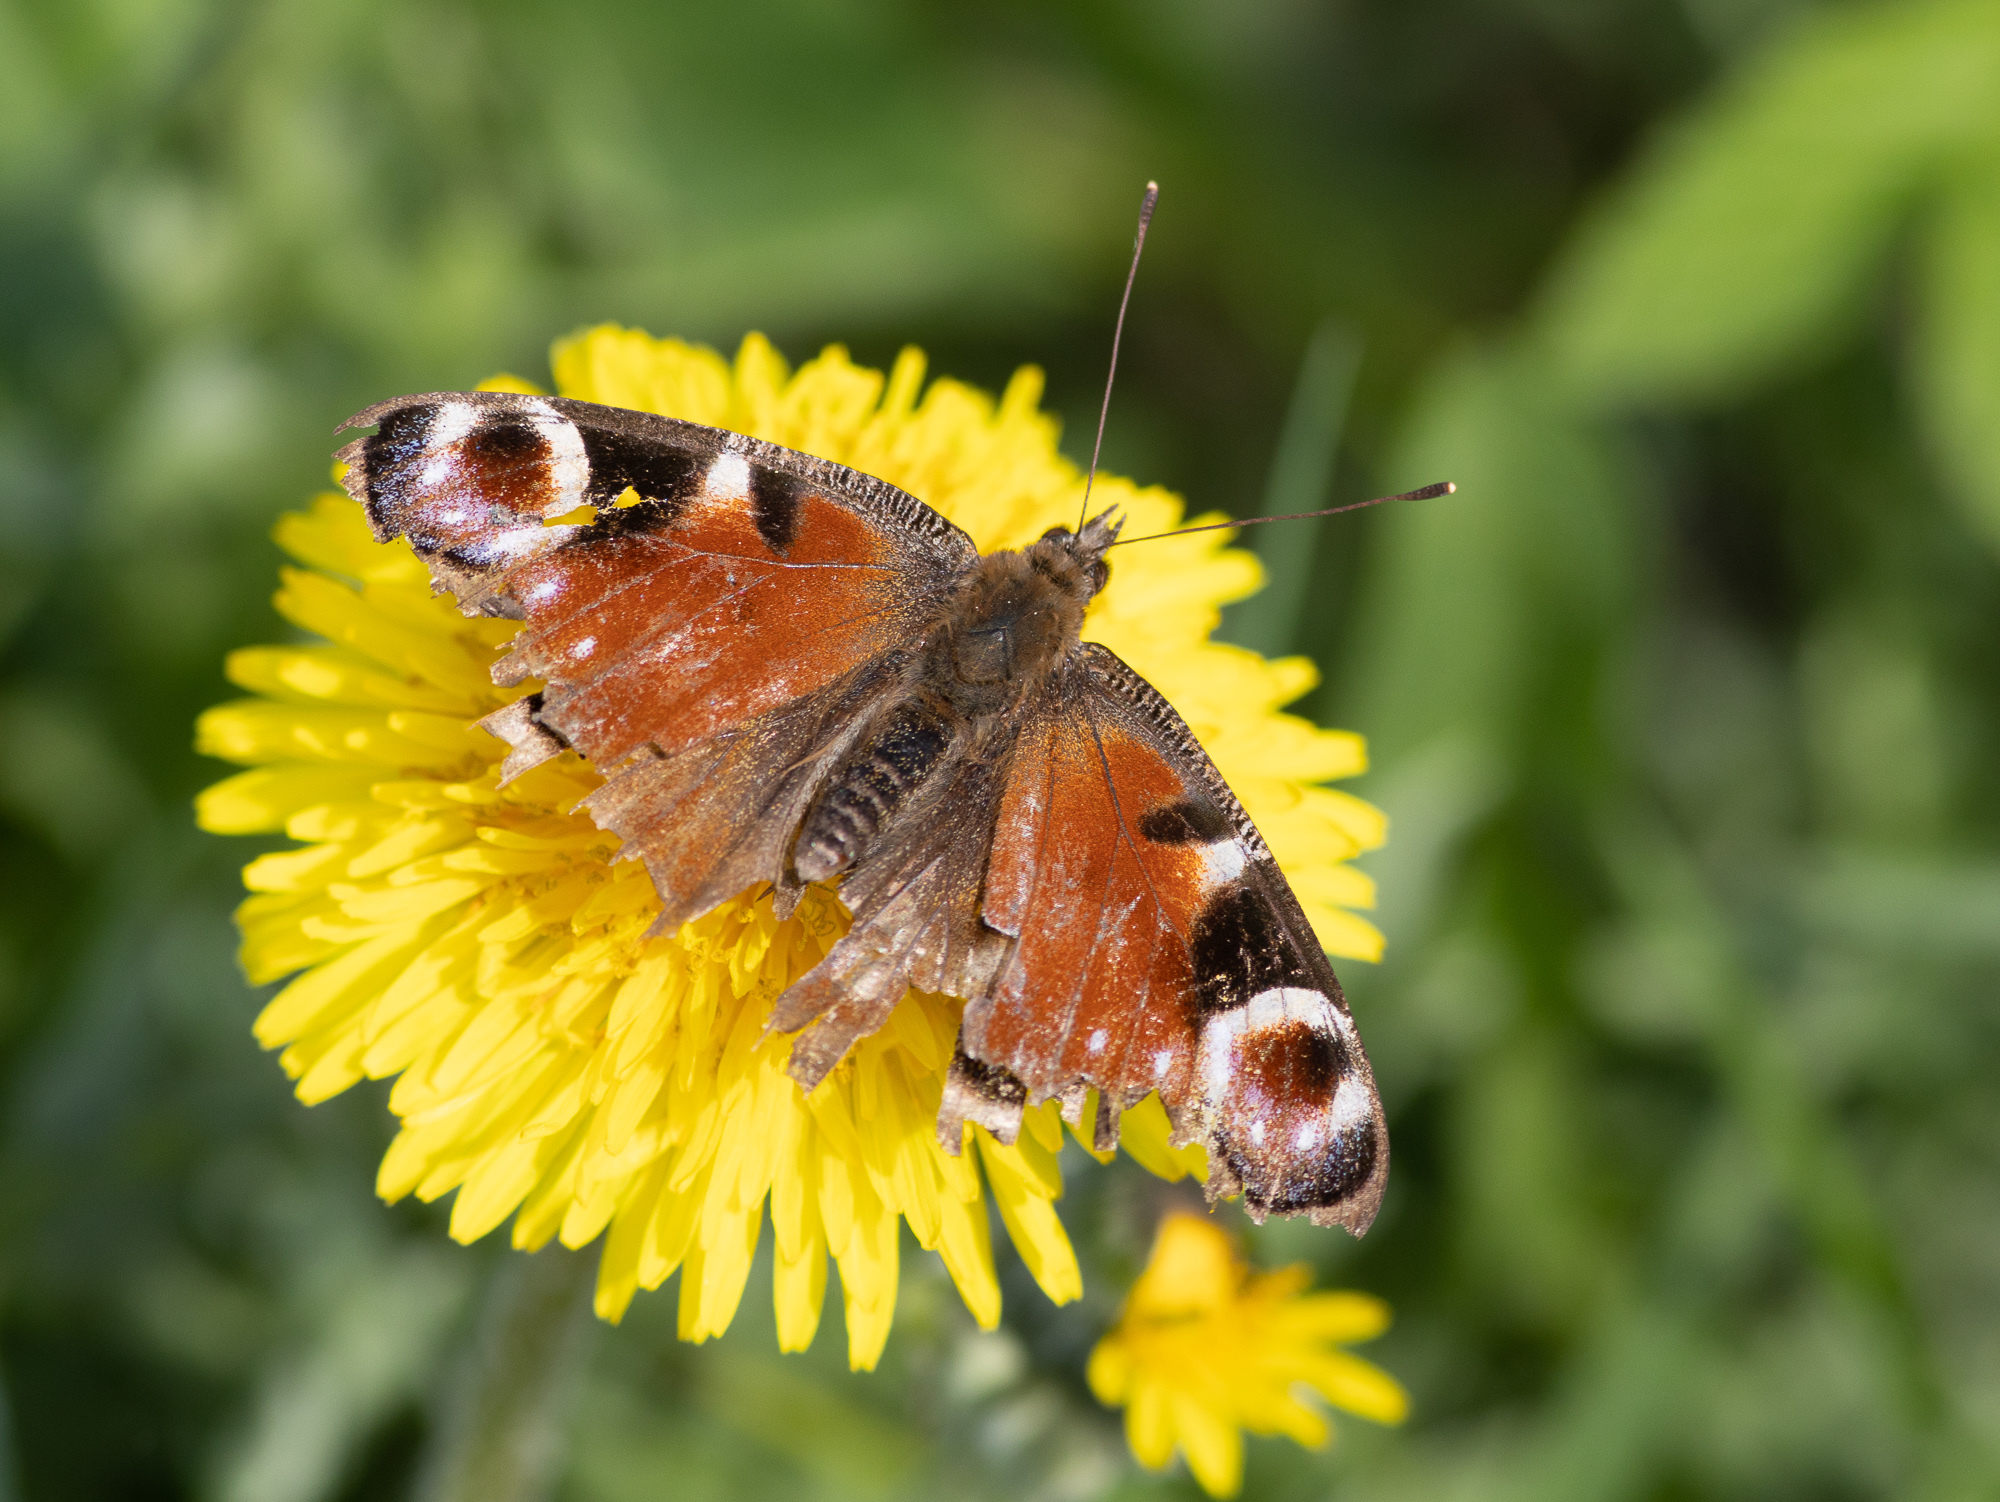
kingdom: Animalia
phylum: Arthropoda
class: Insecta
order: Lepidoptera
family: Nymphalidae
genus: Aglais
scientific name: Aglais io
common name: Peacock
